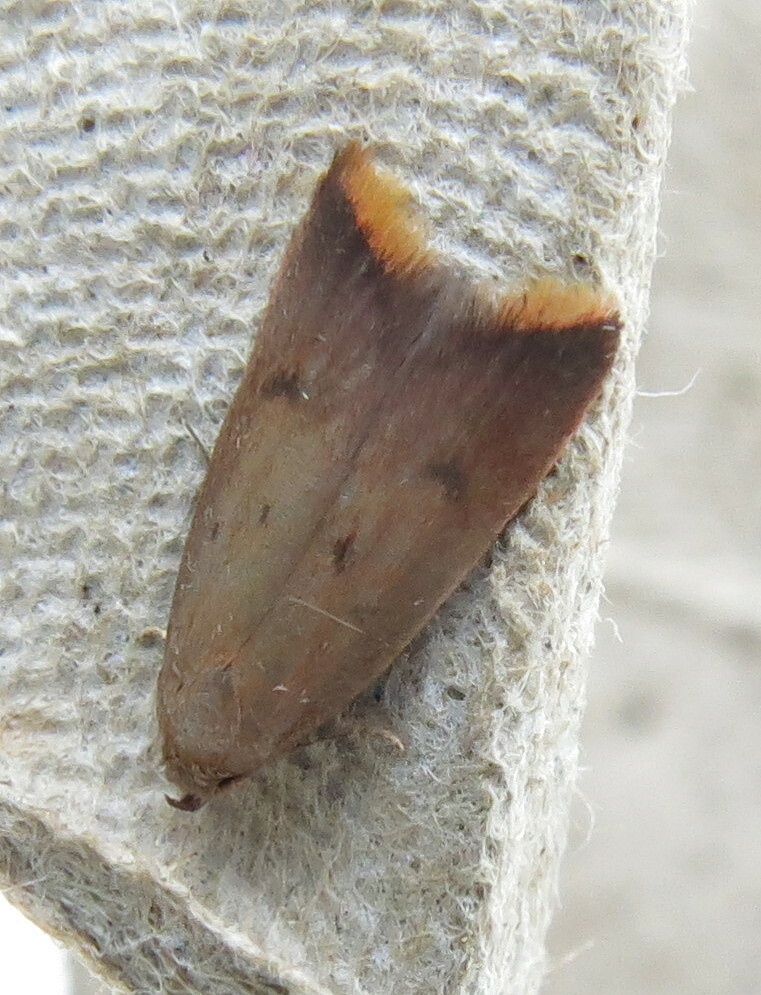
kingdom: Animalia
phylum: Arthropoda
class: Insecta
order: Lepidoptera
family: Oecophoridae
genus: Tachystola
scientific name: Tachystola acroxantha
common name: Ruddy streak
